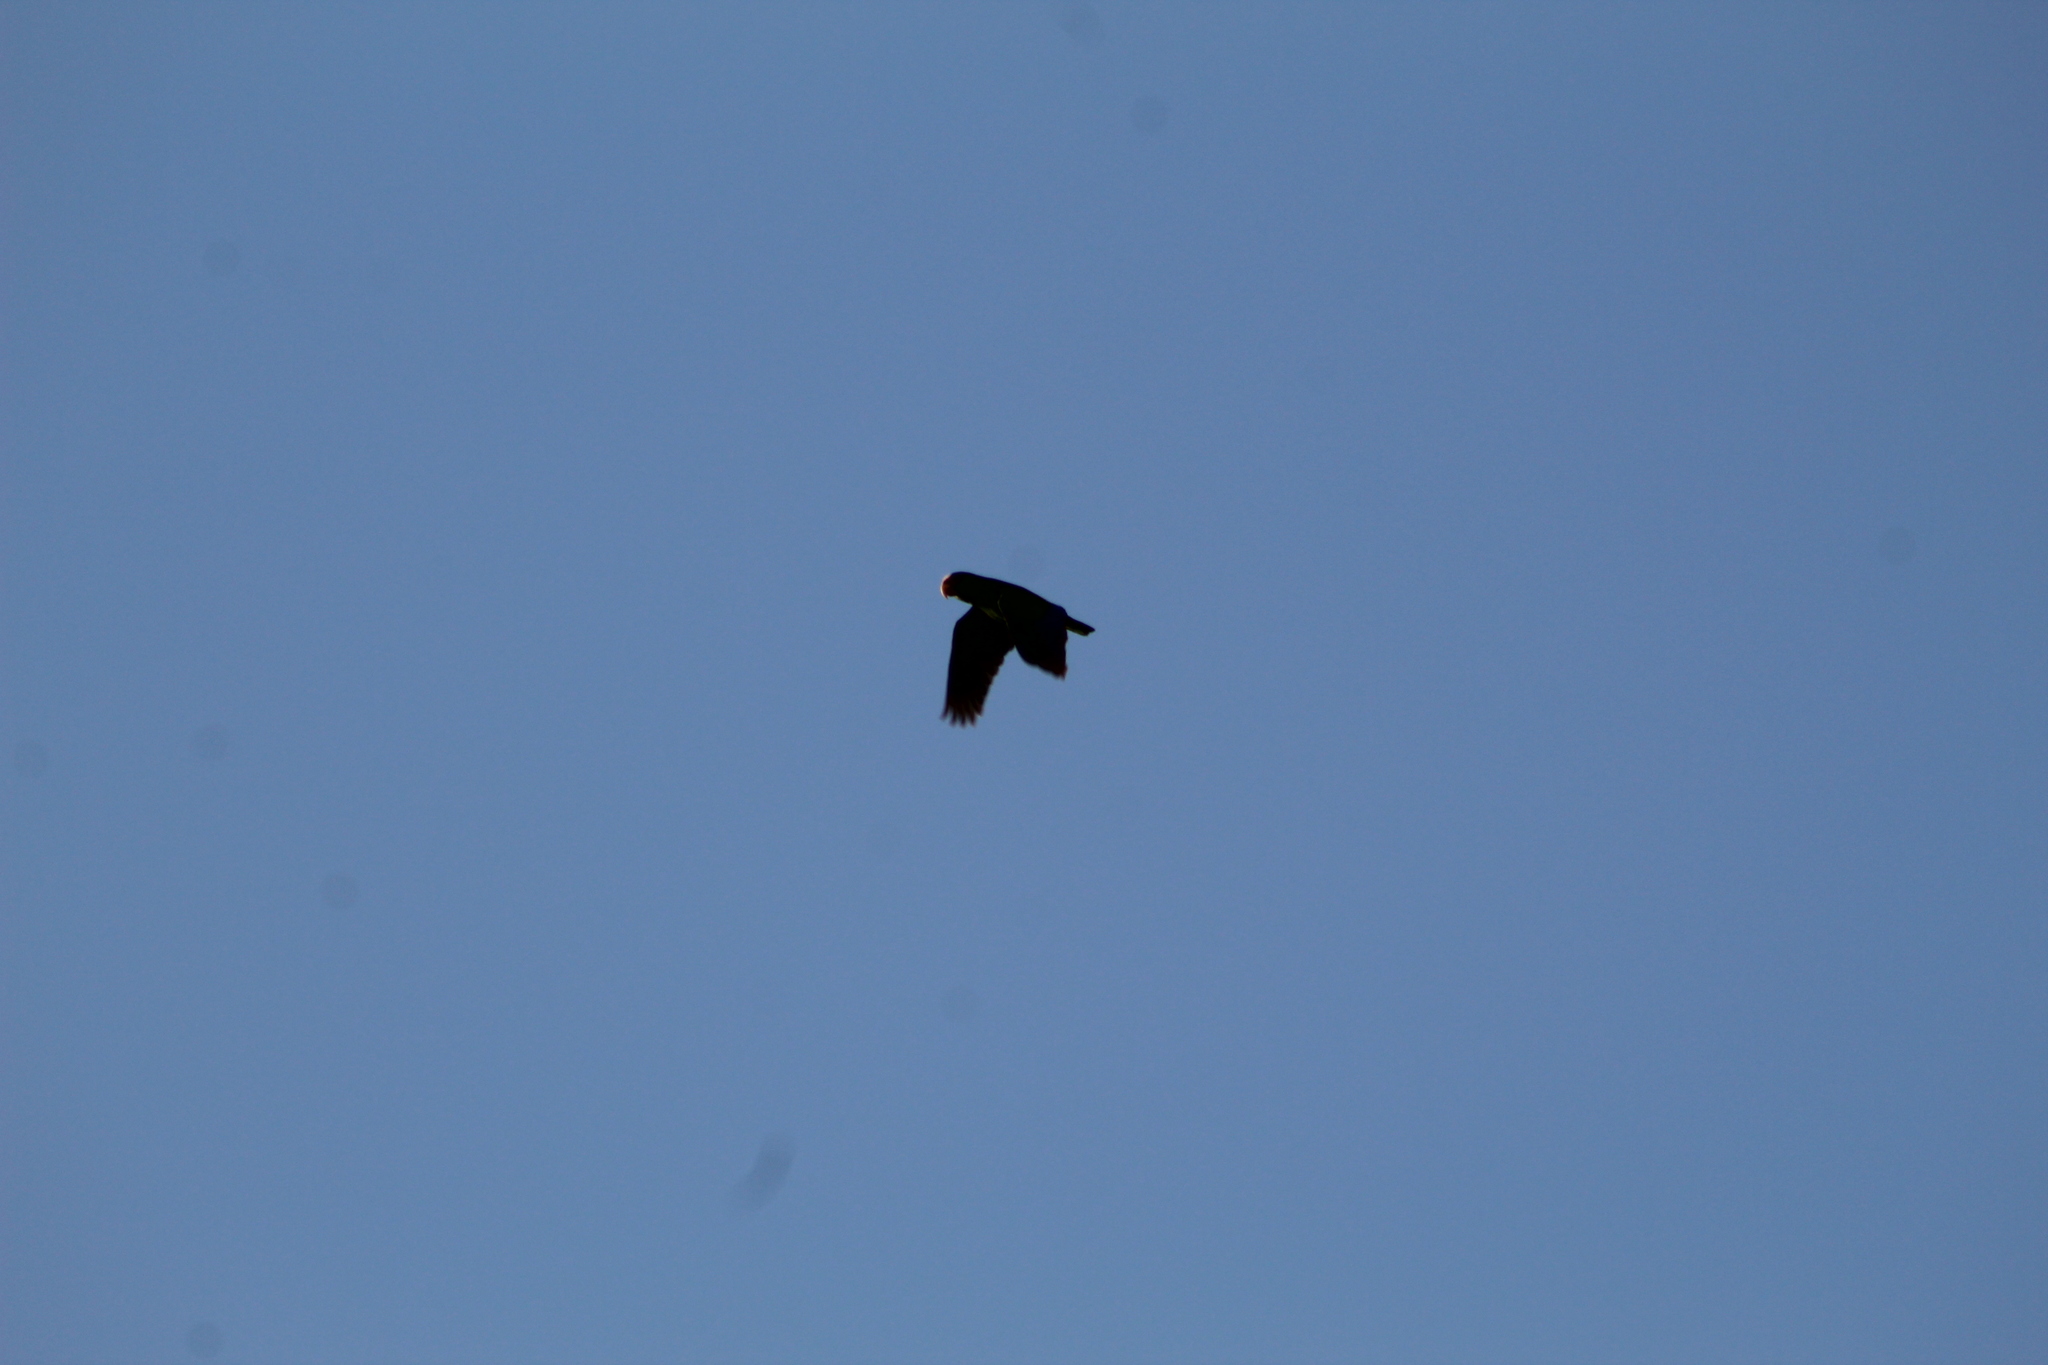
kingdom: Animalia
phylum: Chordata
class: Aves
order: Psittaciformes
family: Psittacidae
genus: Amazona
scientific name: Amazona albifrons
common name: White-fronted amazon
